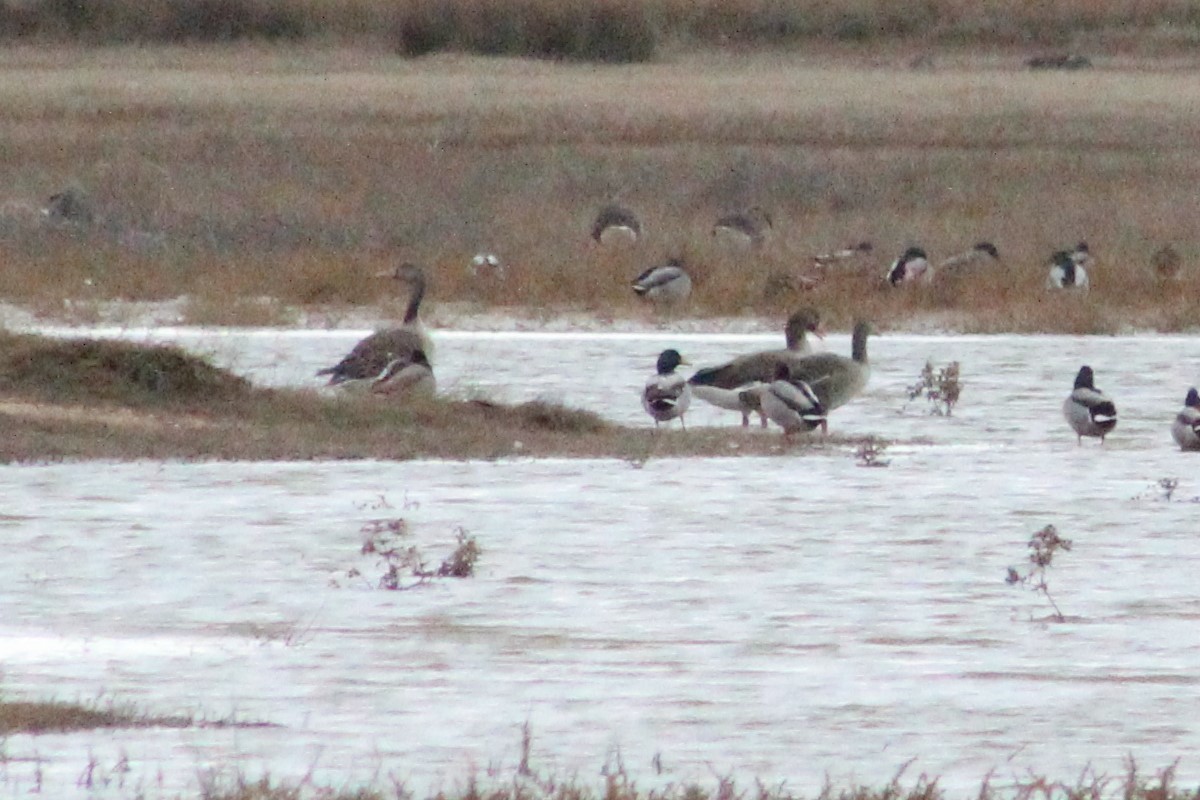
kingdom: Animalia
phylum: Chordata
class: Aves
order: Anseriformes
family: Anatidae
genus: Anser
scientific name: Anser anser
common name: Greylag goose
